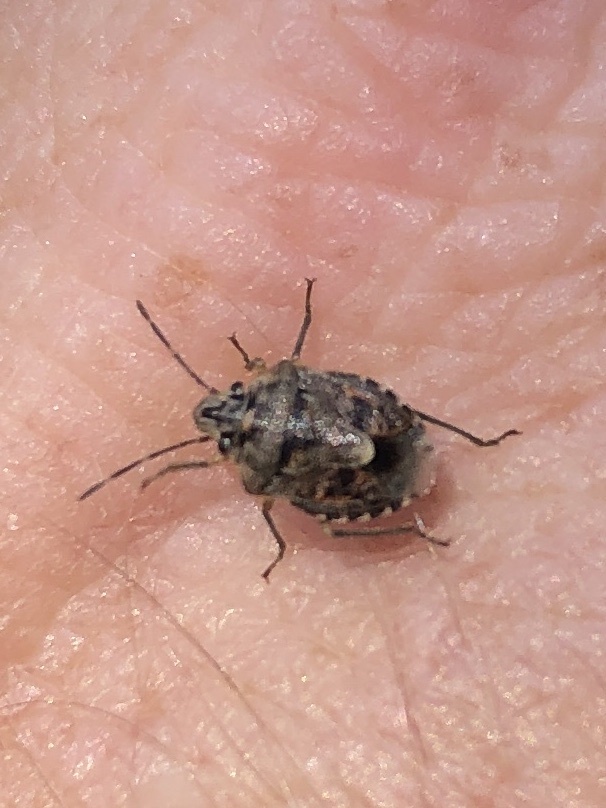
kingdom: Animalia
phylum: Arthropoda
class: Insecta
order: Hemiptera
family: Pentatomidae
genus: Holcogaster
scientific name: Holcogaster fibulata
